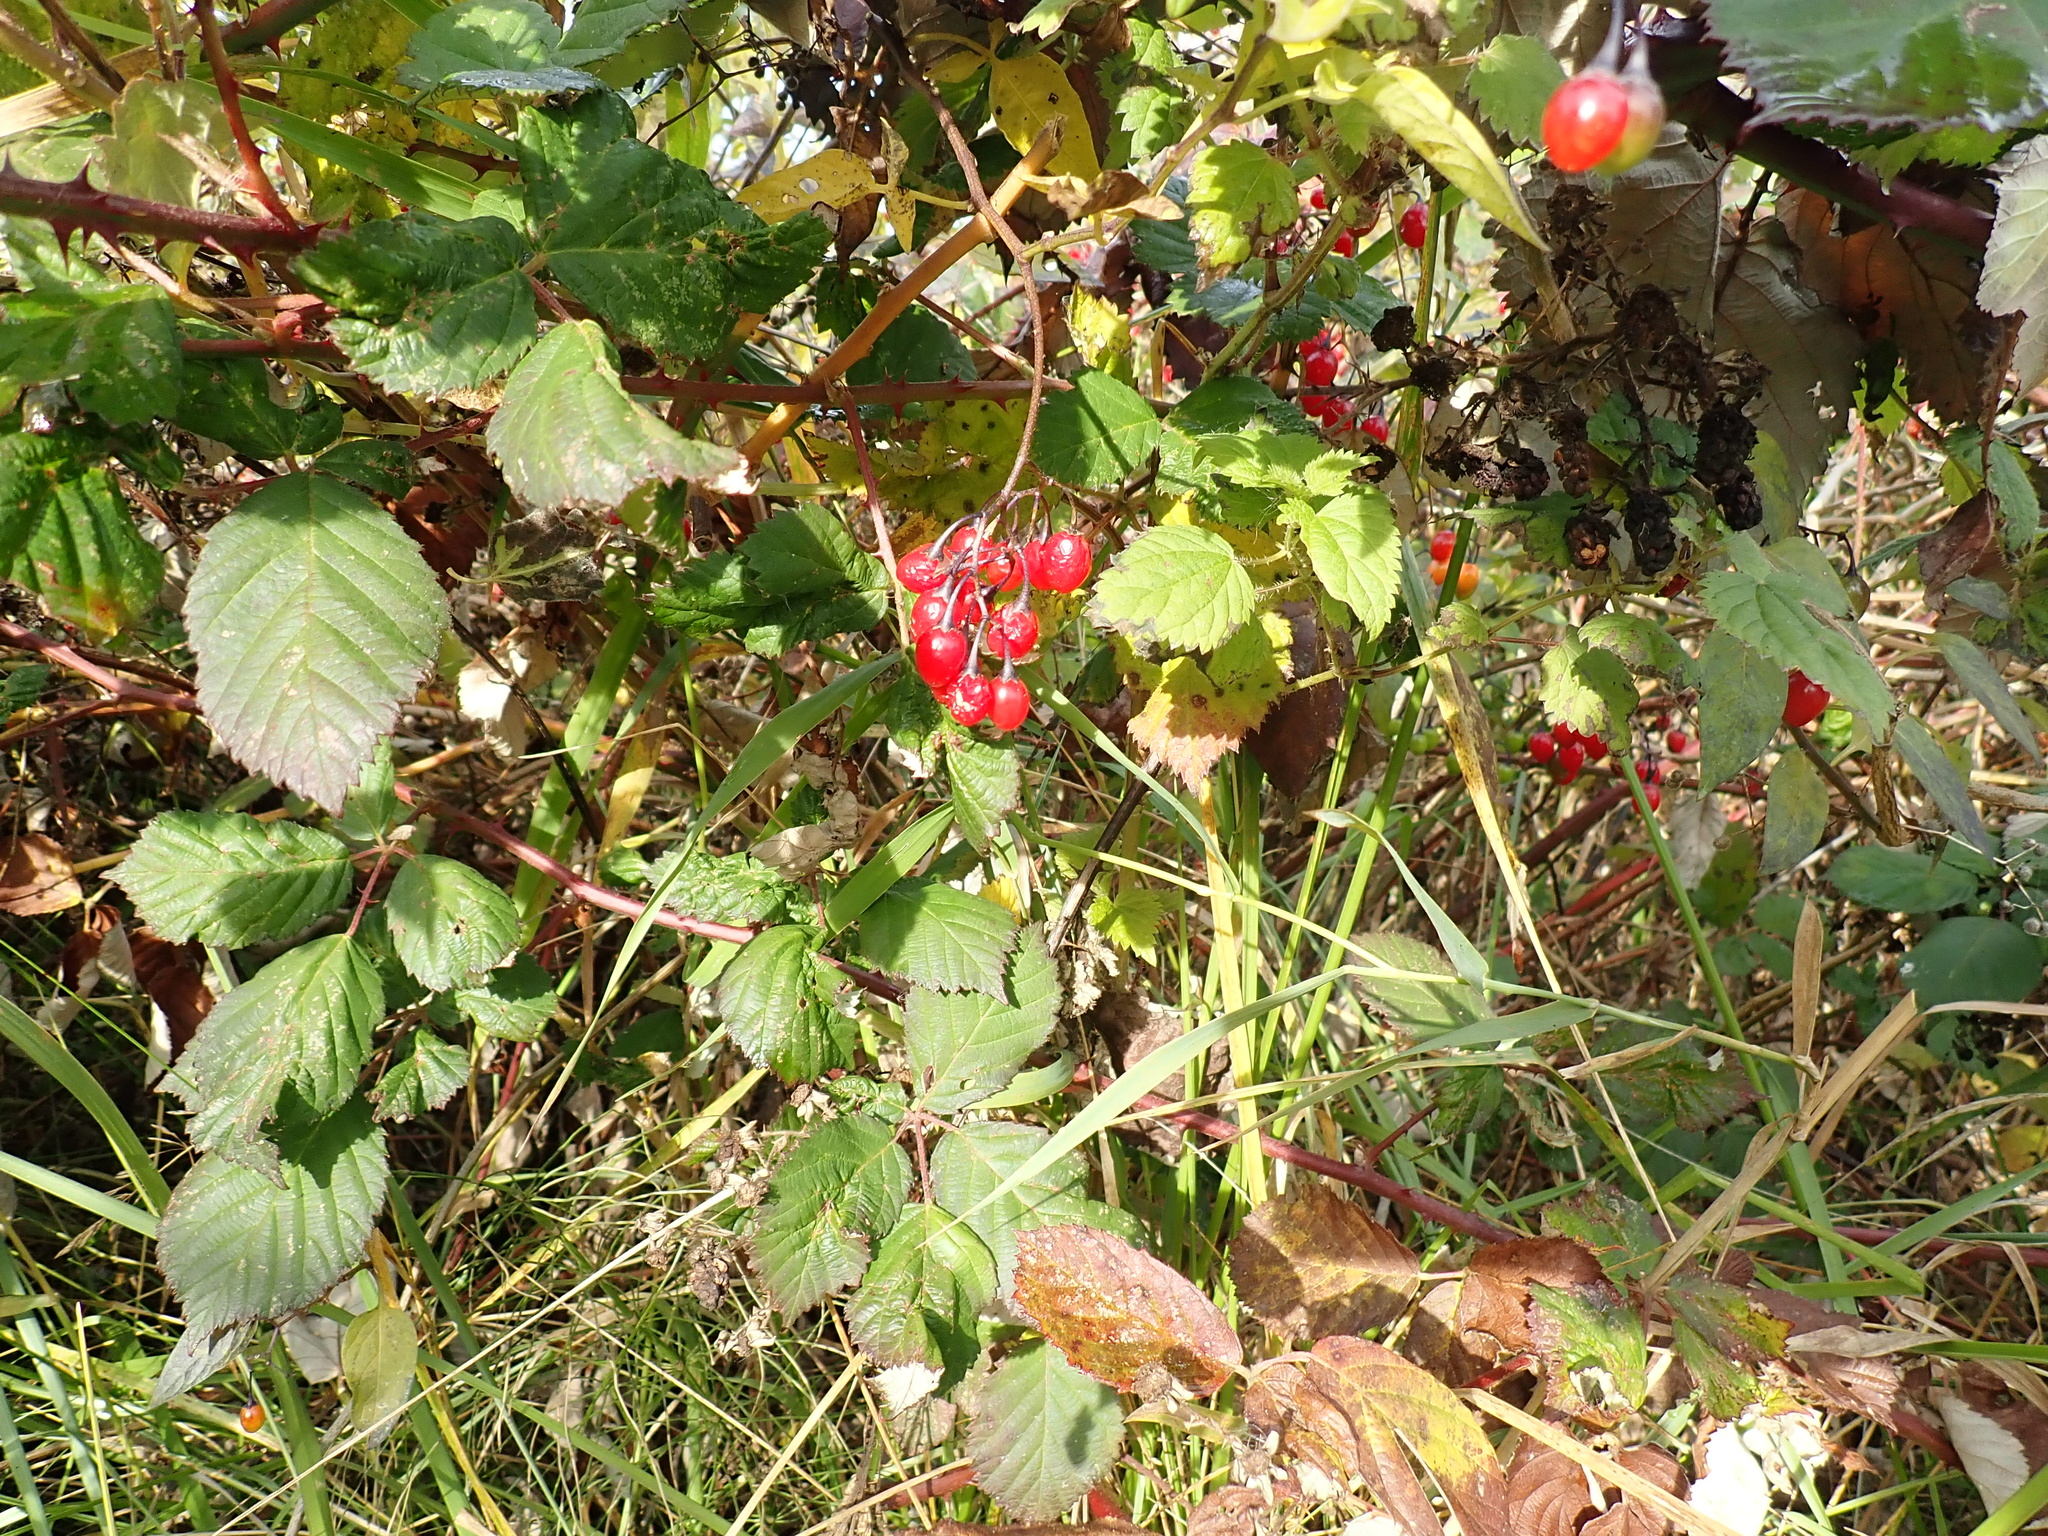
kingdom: Plantae
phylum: Tracheophyta
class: Magnoliopsida
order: Solanales
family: Solanaceae
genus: Solanum
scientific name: Solanum dulcamara
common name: Climbing nightshade
